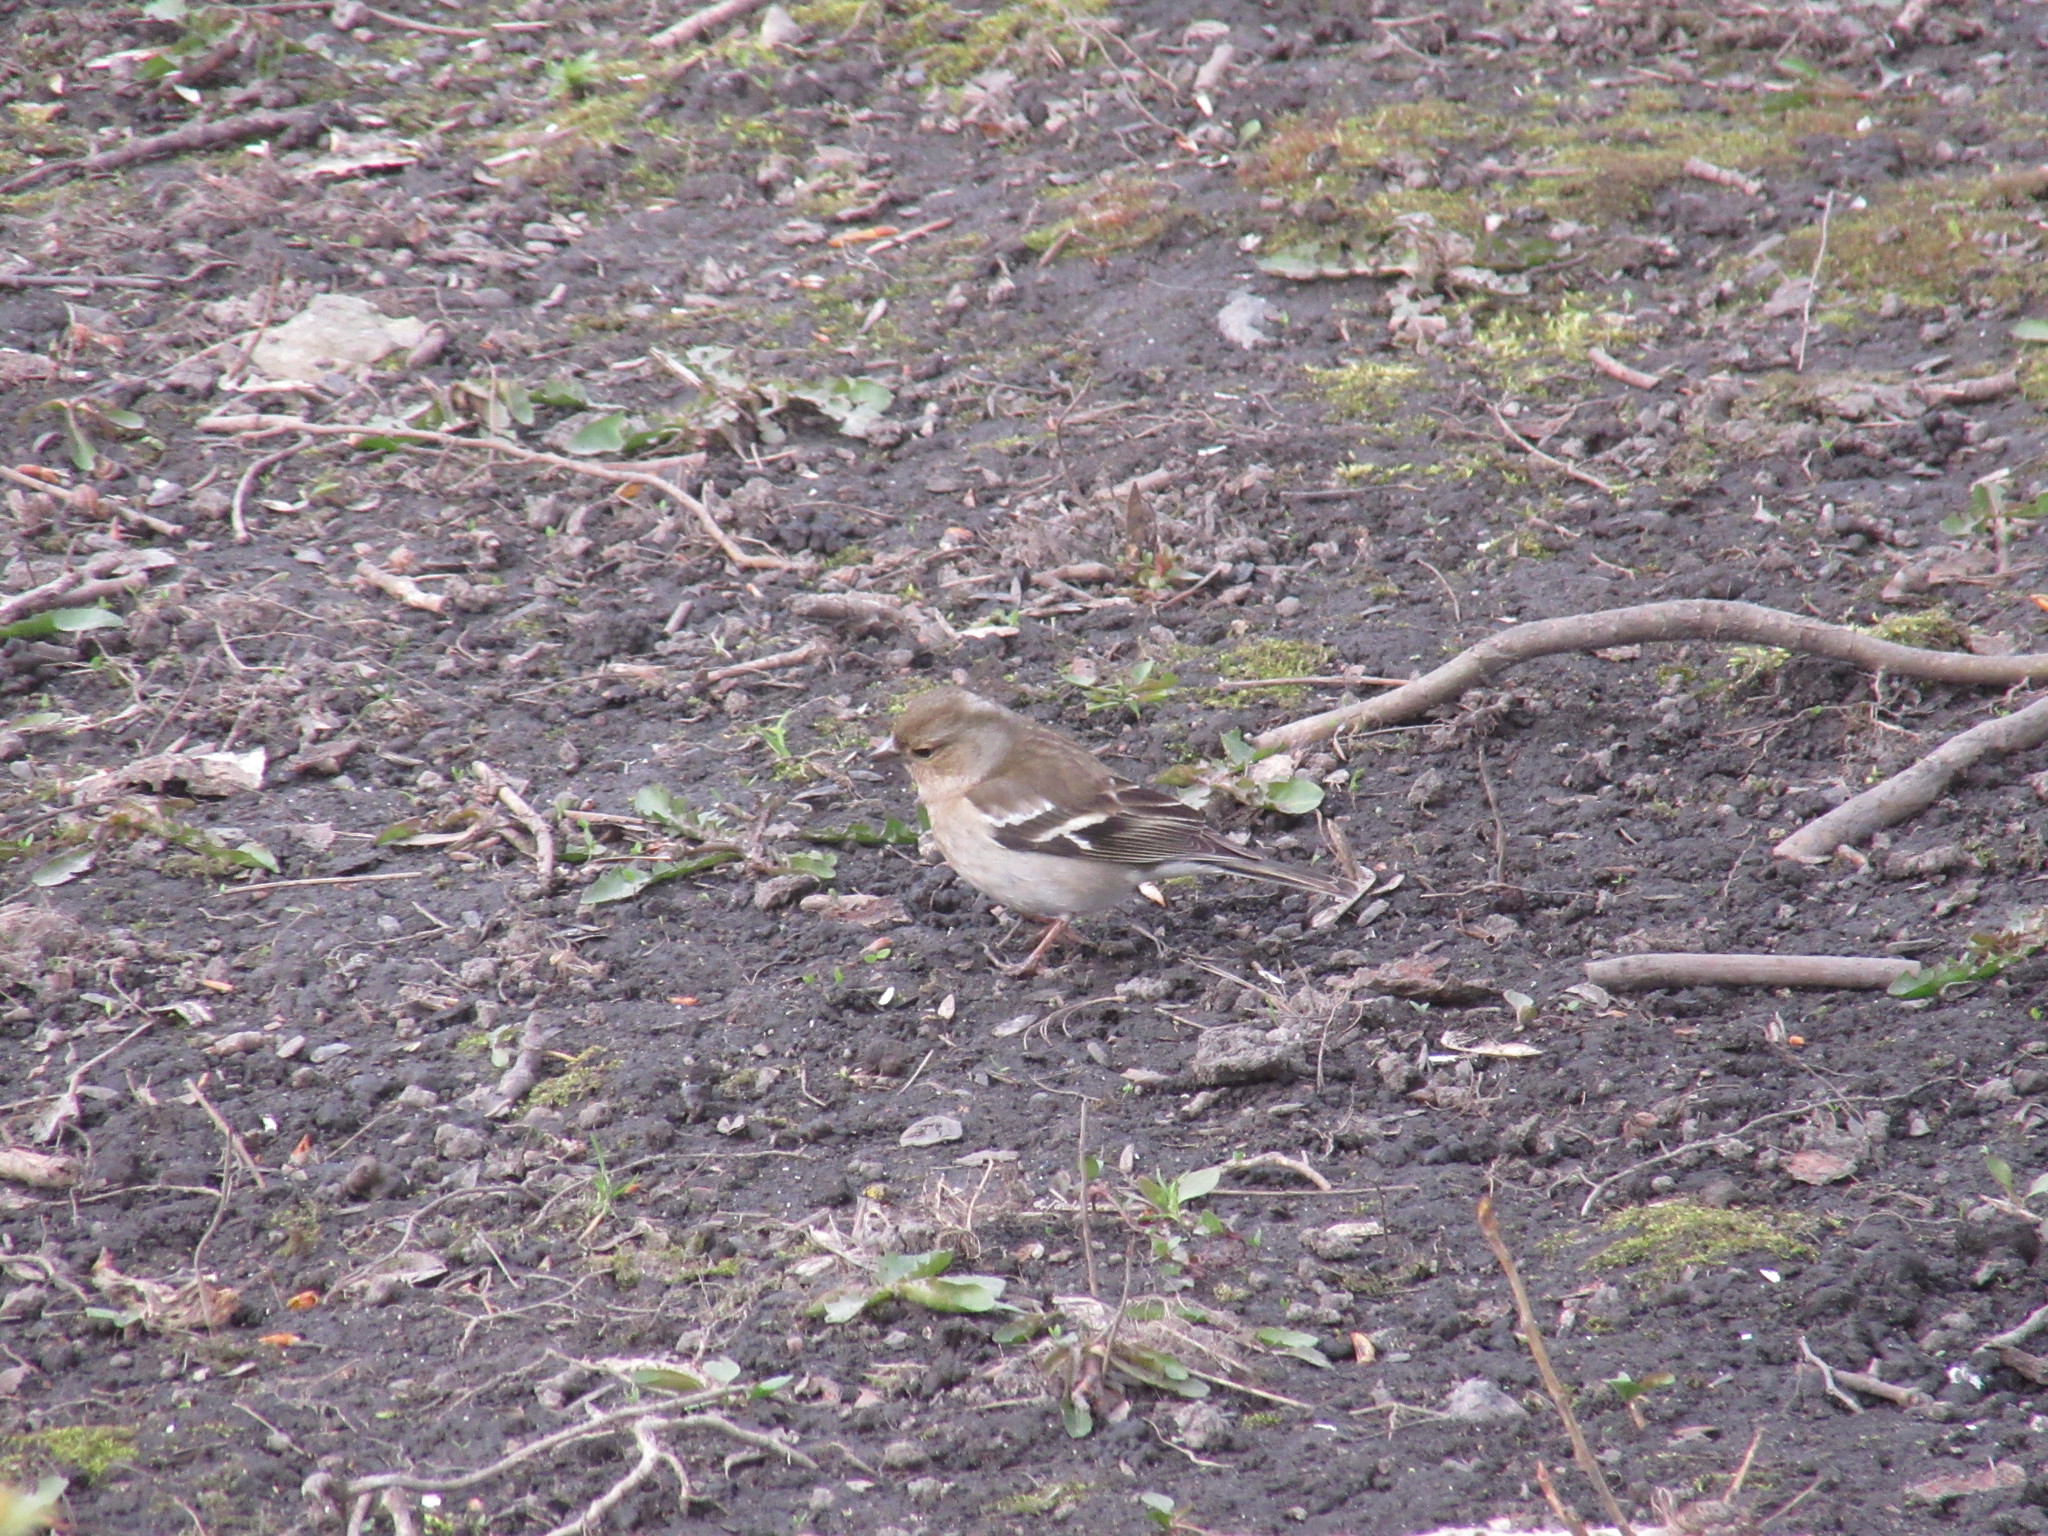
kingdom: Animalia
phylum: Chordata
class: Aves
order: Passeriformes
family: Fringillidae
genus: Fringilla
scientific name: Fringilla coelebs
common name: Common chaffinch
